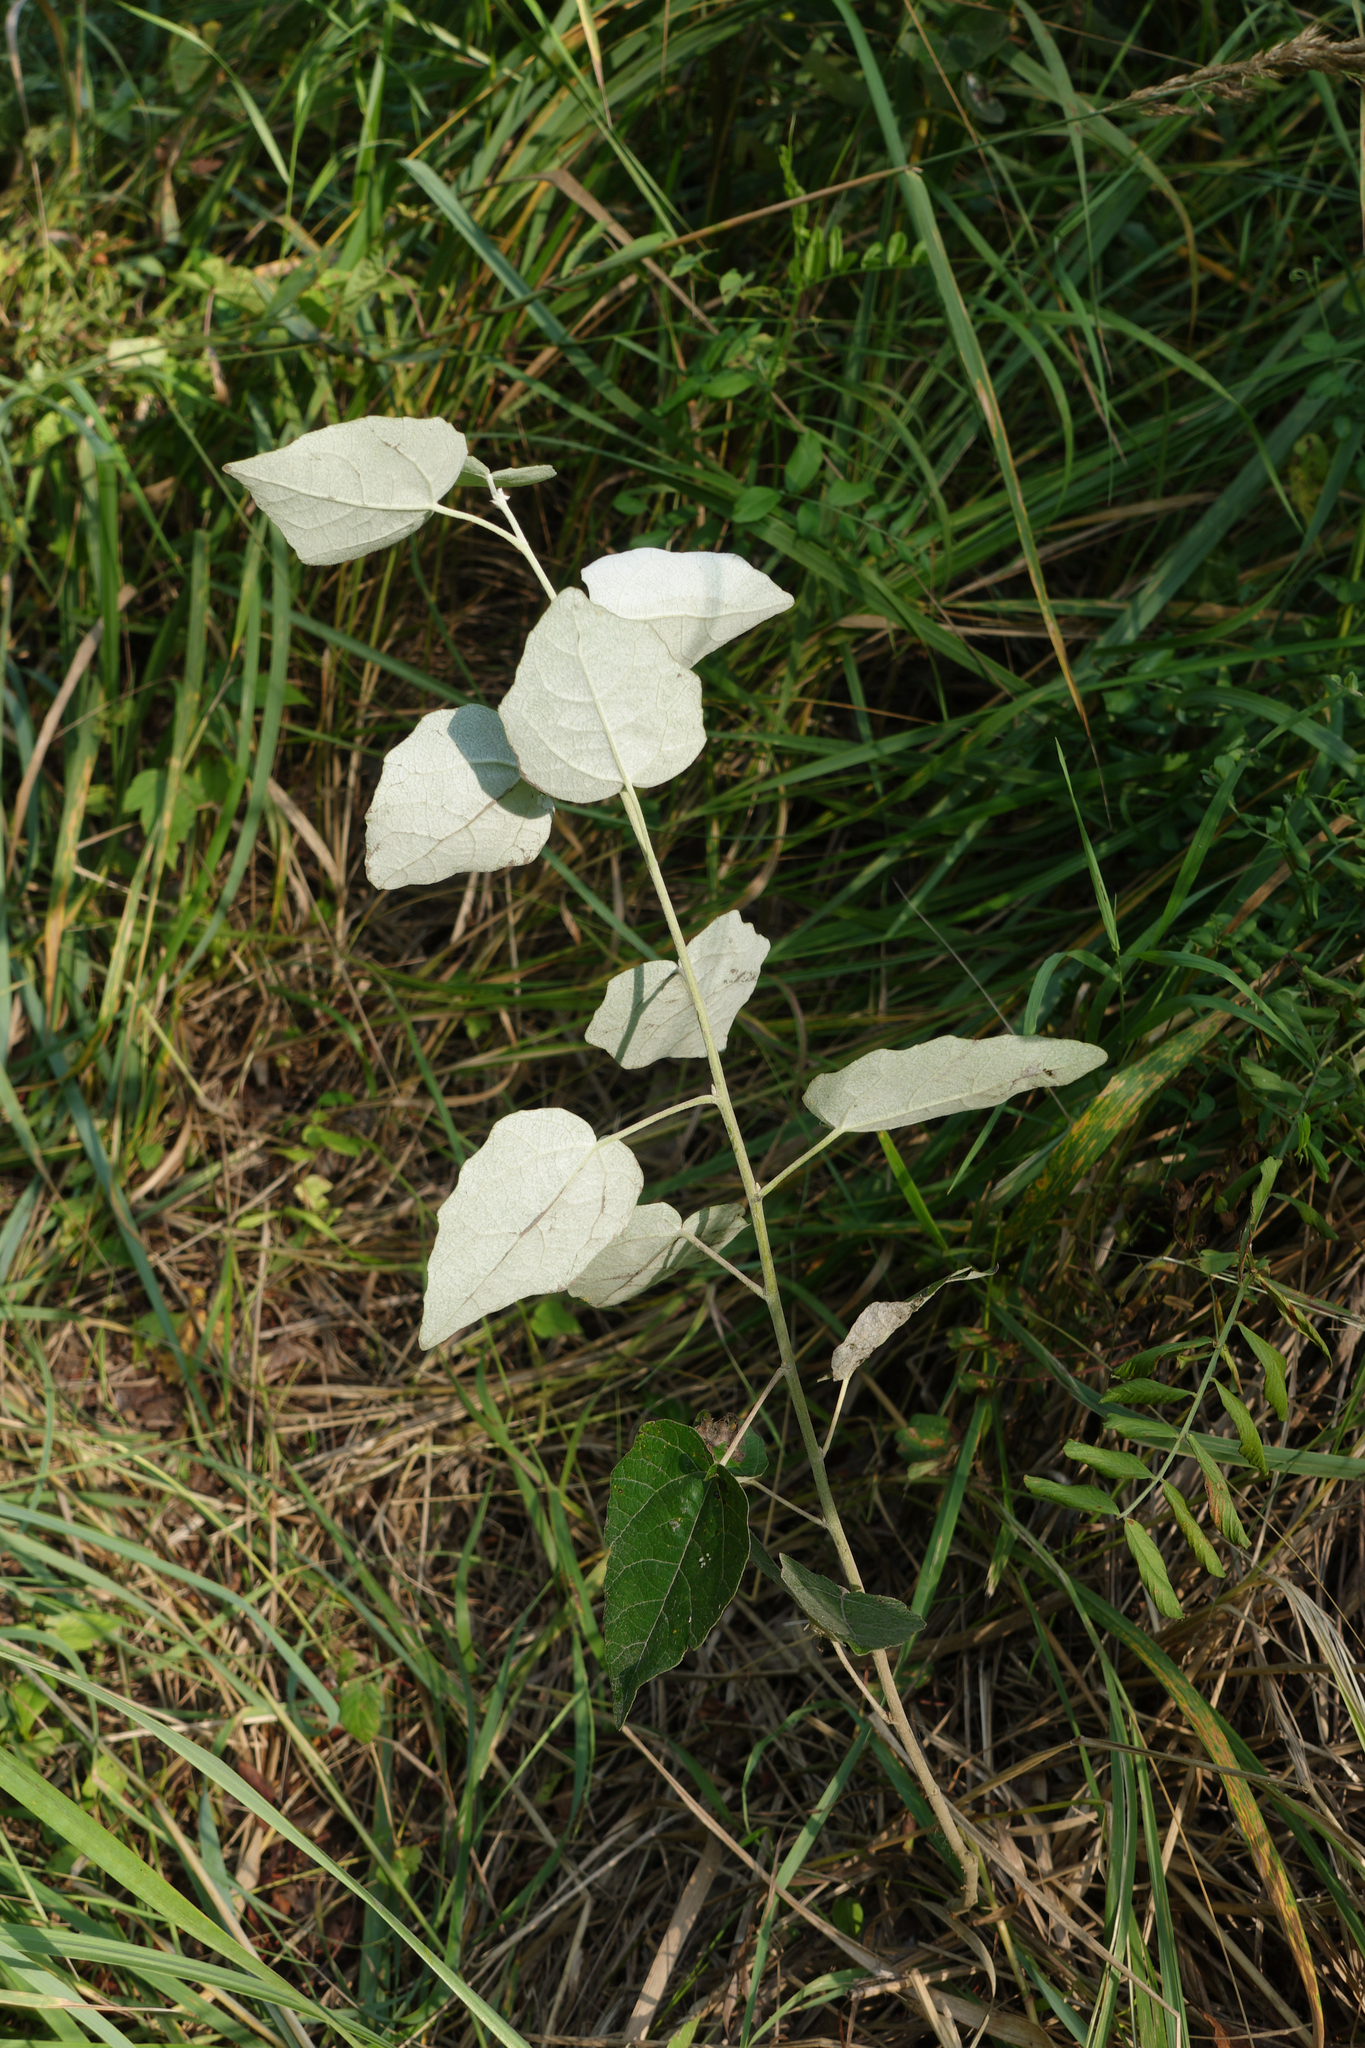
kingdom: Plantae
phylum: Tracheophyta
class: Magnoliopsida
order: Malpighiales
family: Salicaceae
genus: Populus
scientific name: Populus alba
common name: White poplar
